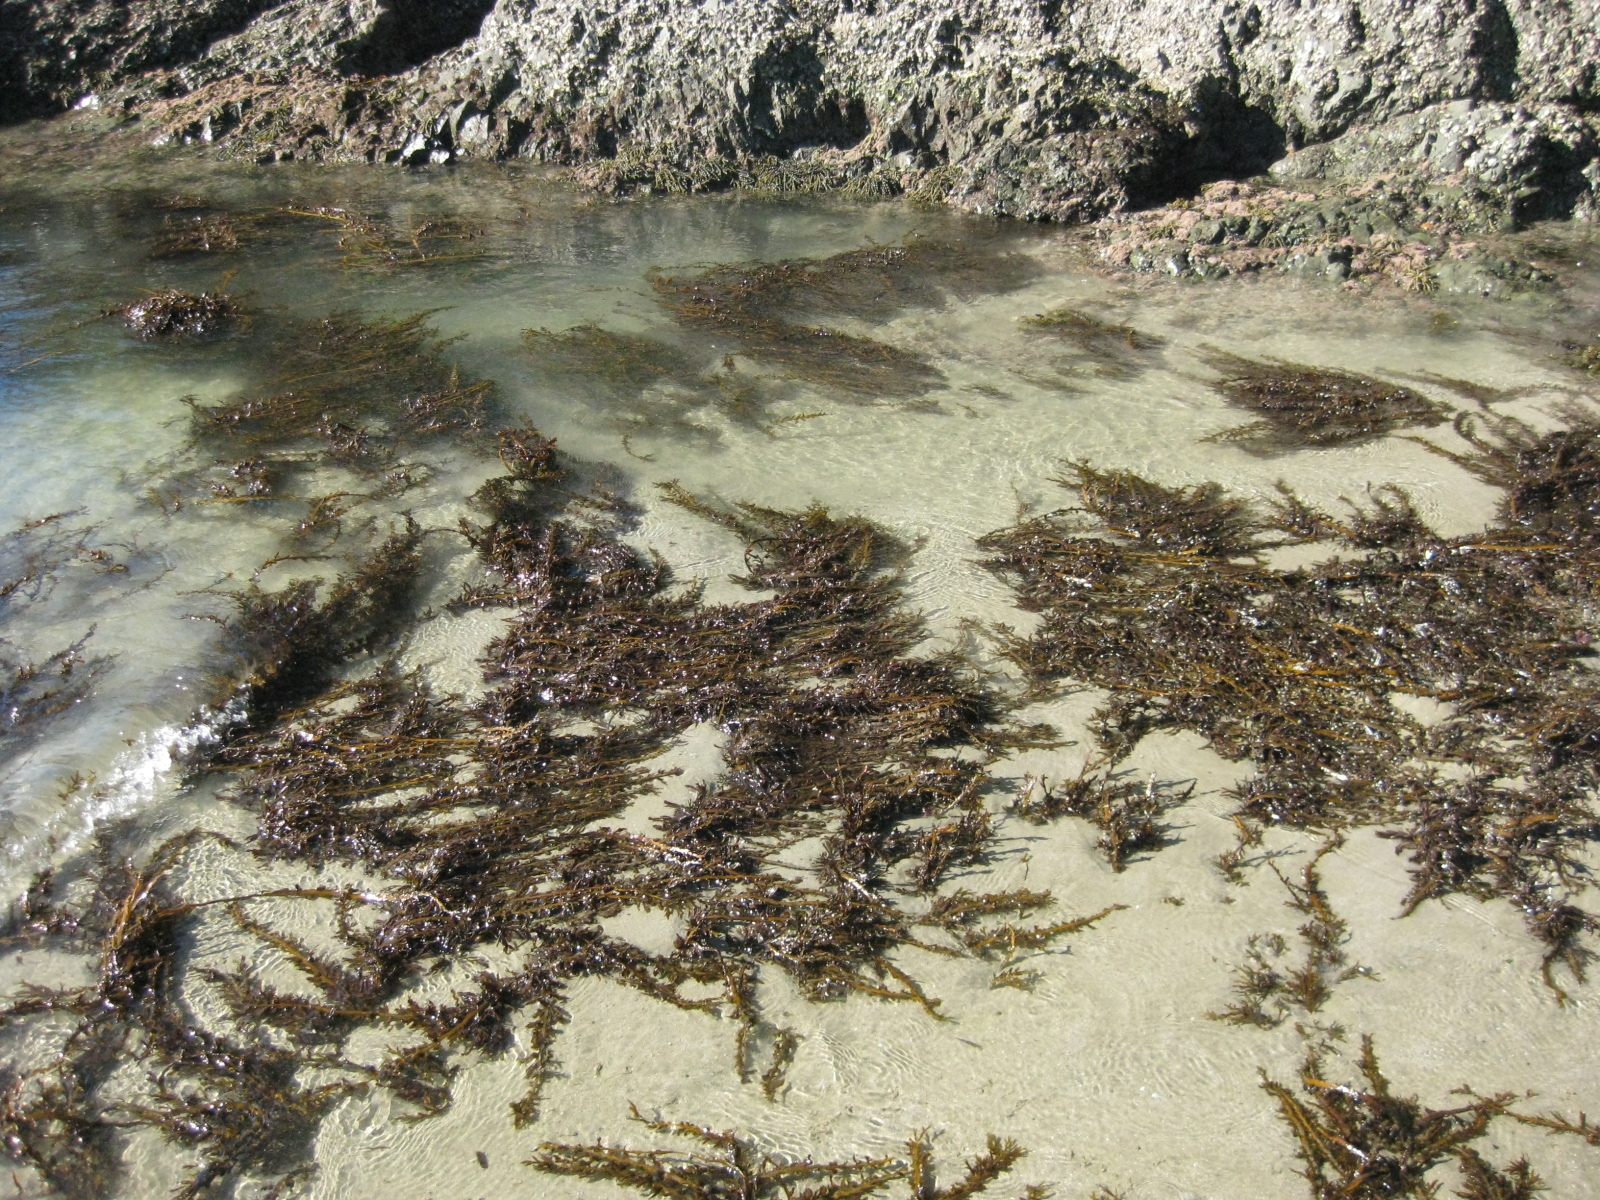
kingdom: Chromista
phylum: Ochrophyta
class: Phaeophyceae
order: Fucales
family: Sargassaceae
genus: Carpophyllum
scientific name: Carpophyllum maschalocarpum
